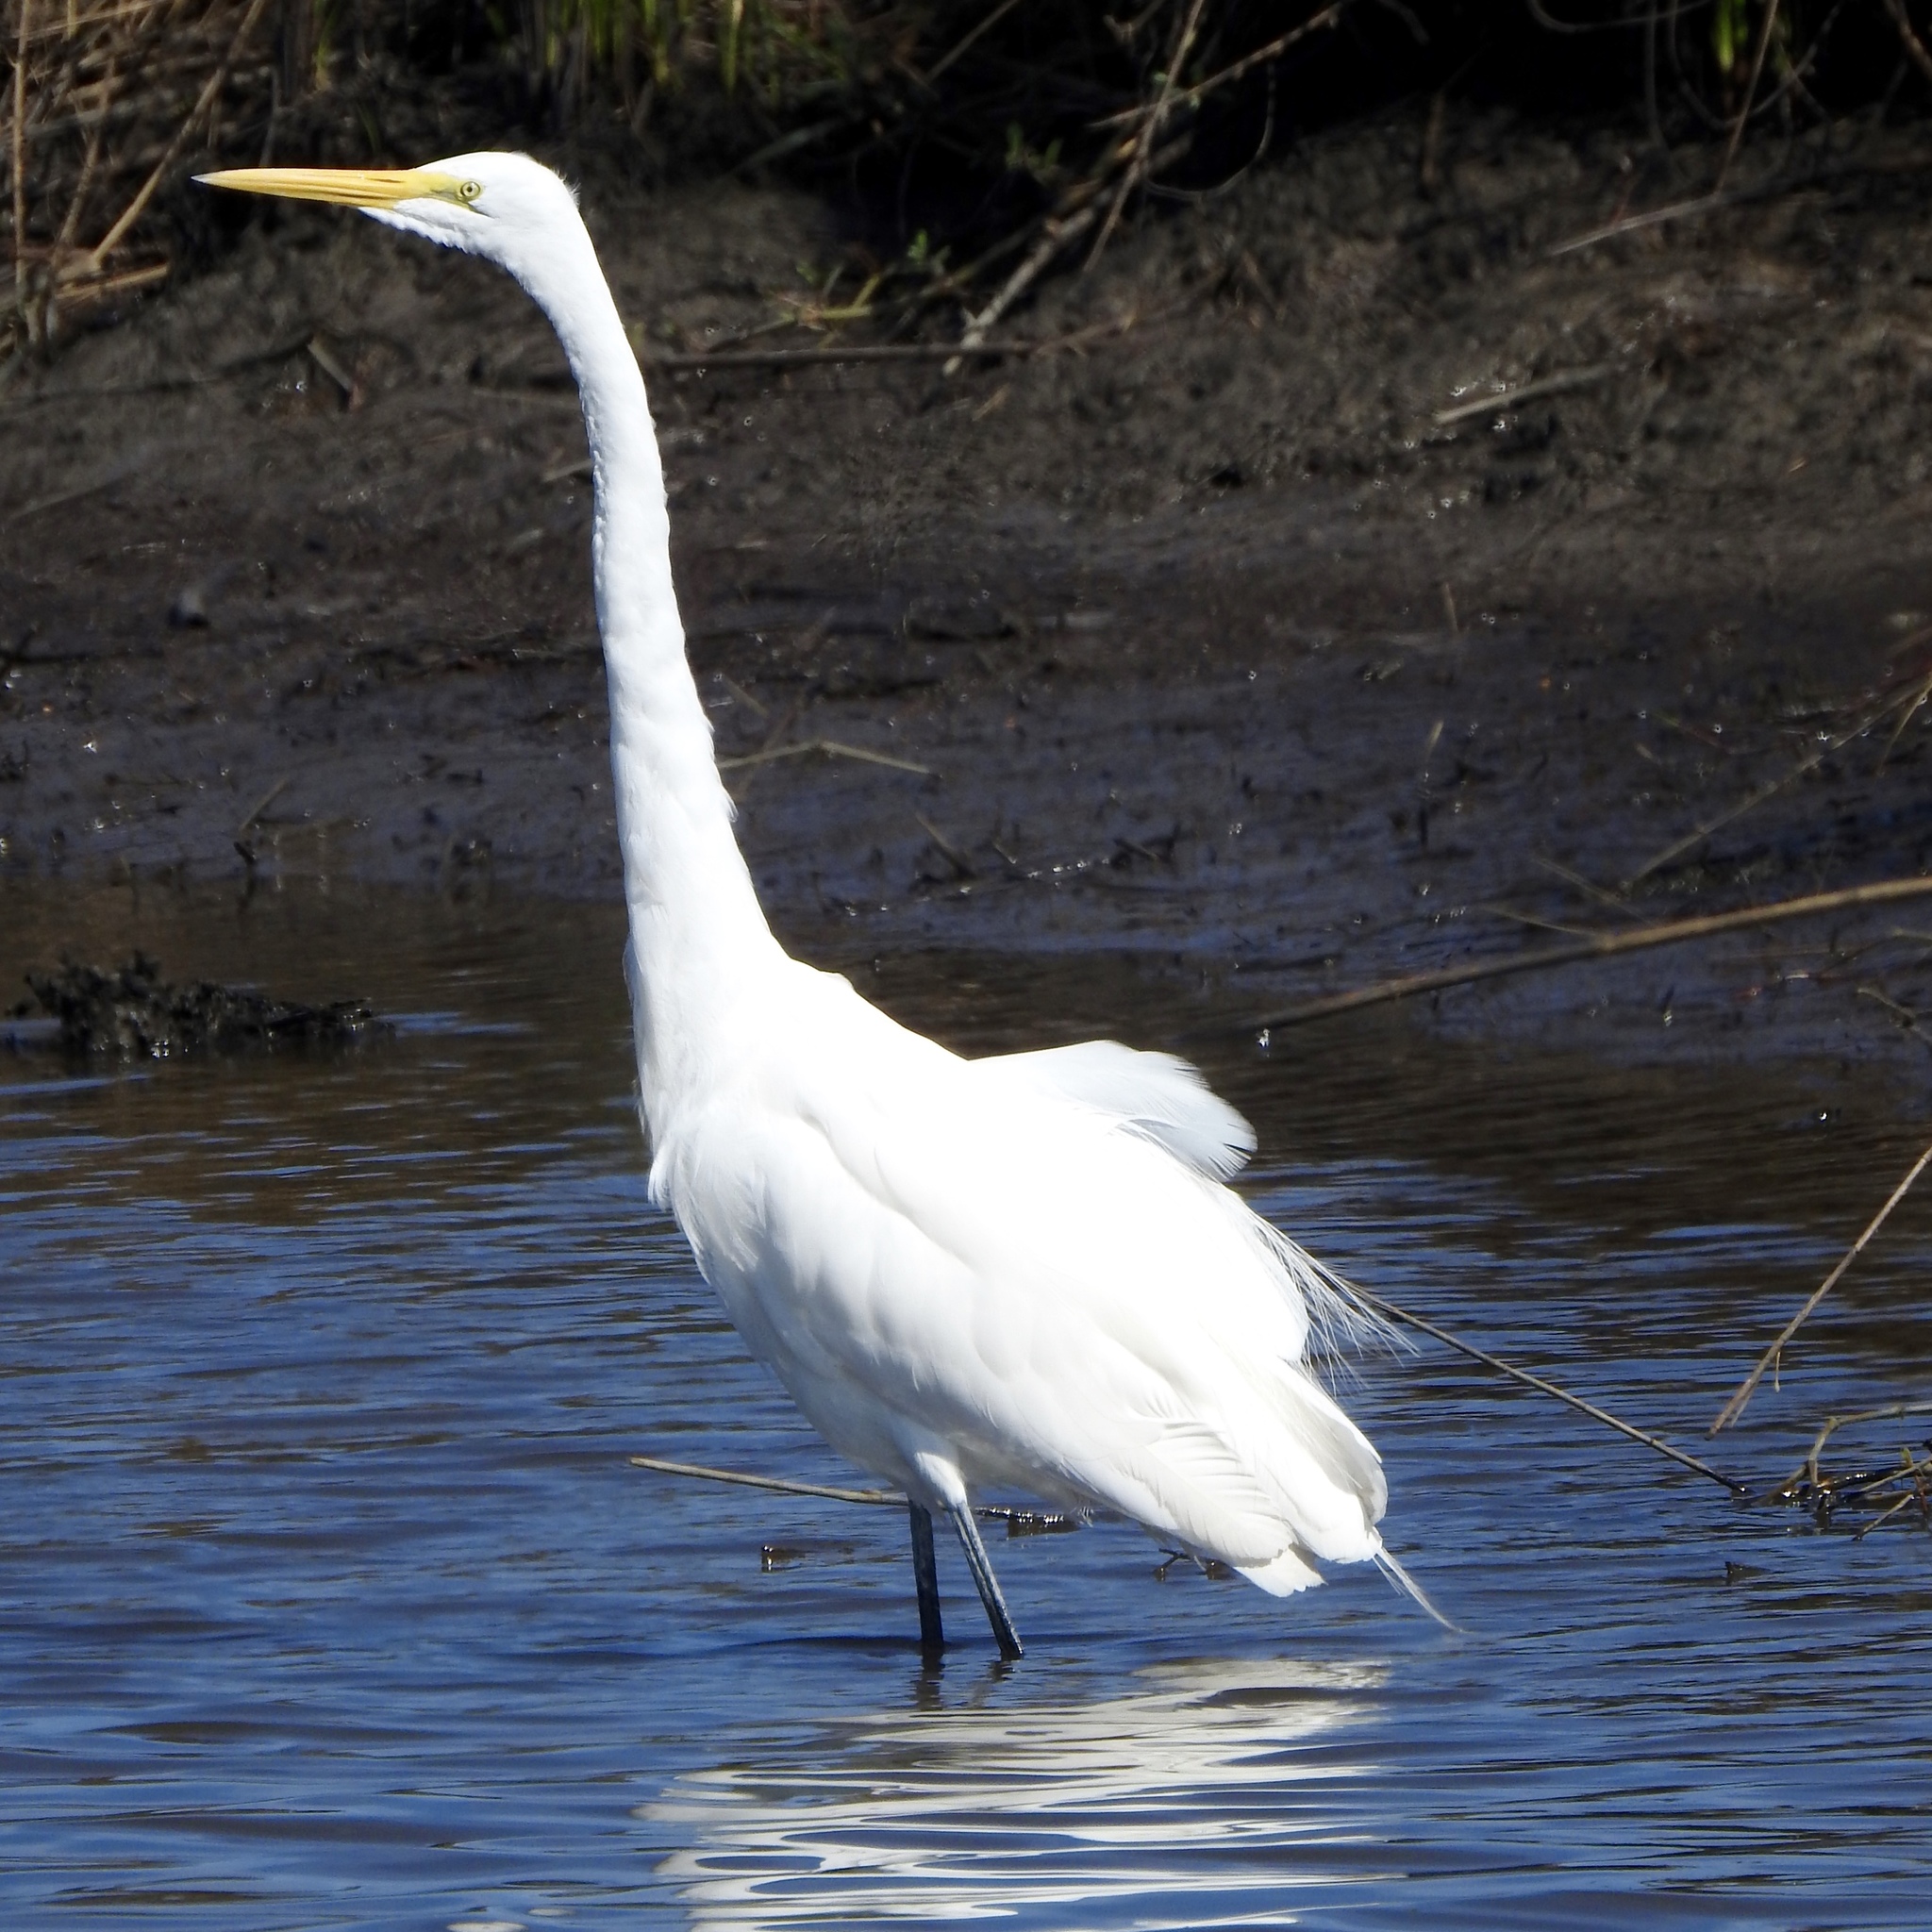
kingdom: Animalia
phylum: Chordata
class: Aves
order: Pelecaniformes
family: Ardeidae
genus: Ardea
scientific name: Ardea alba
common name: Great egret
